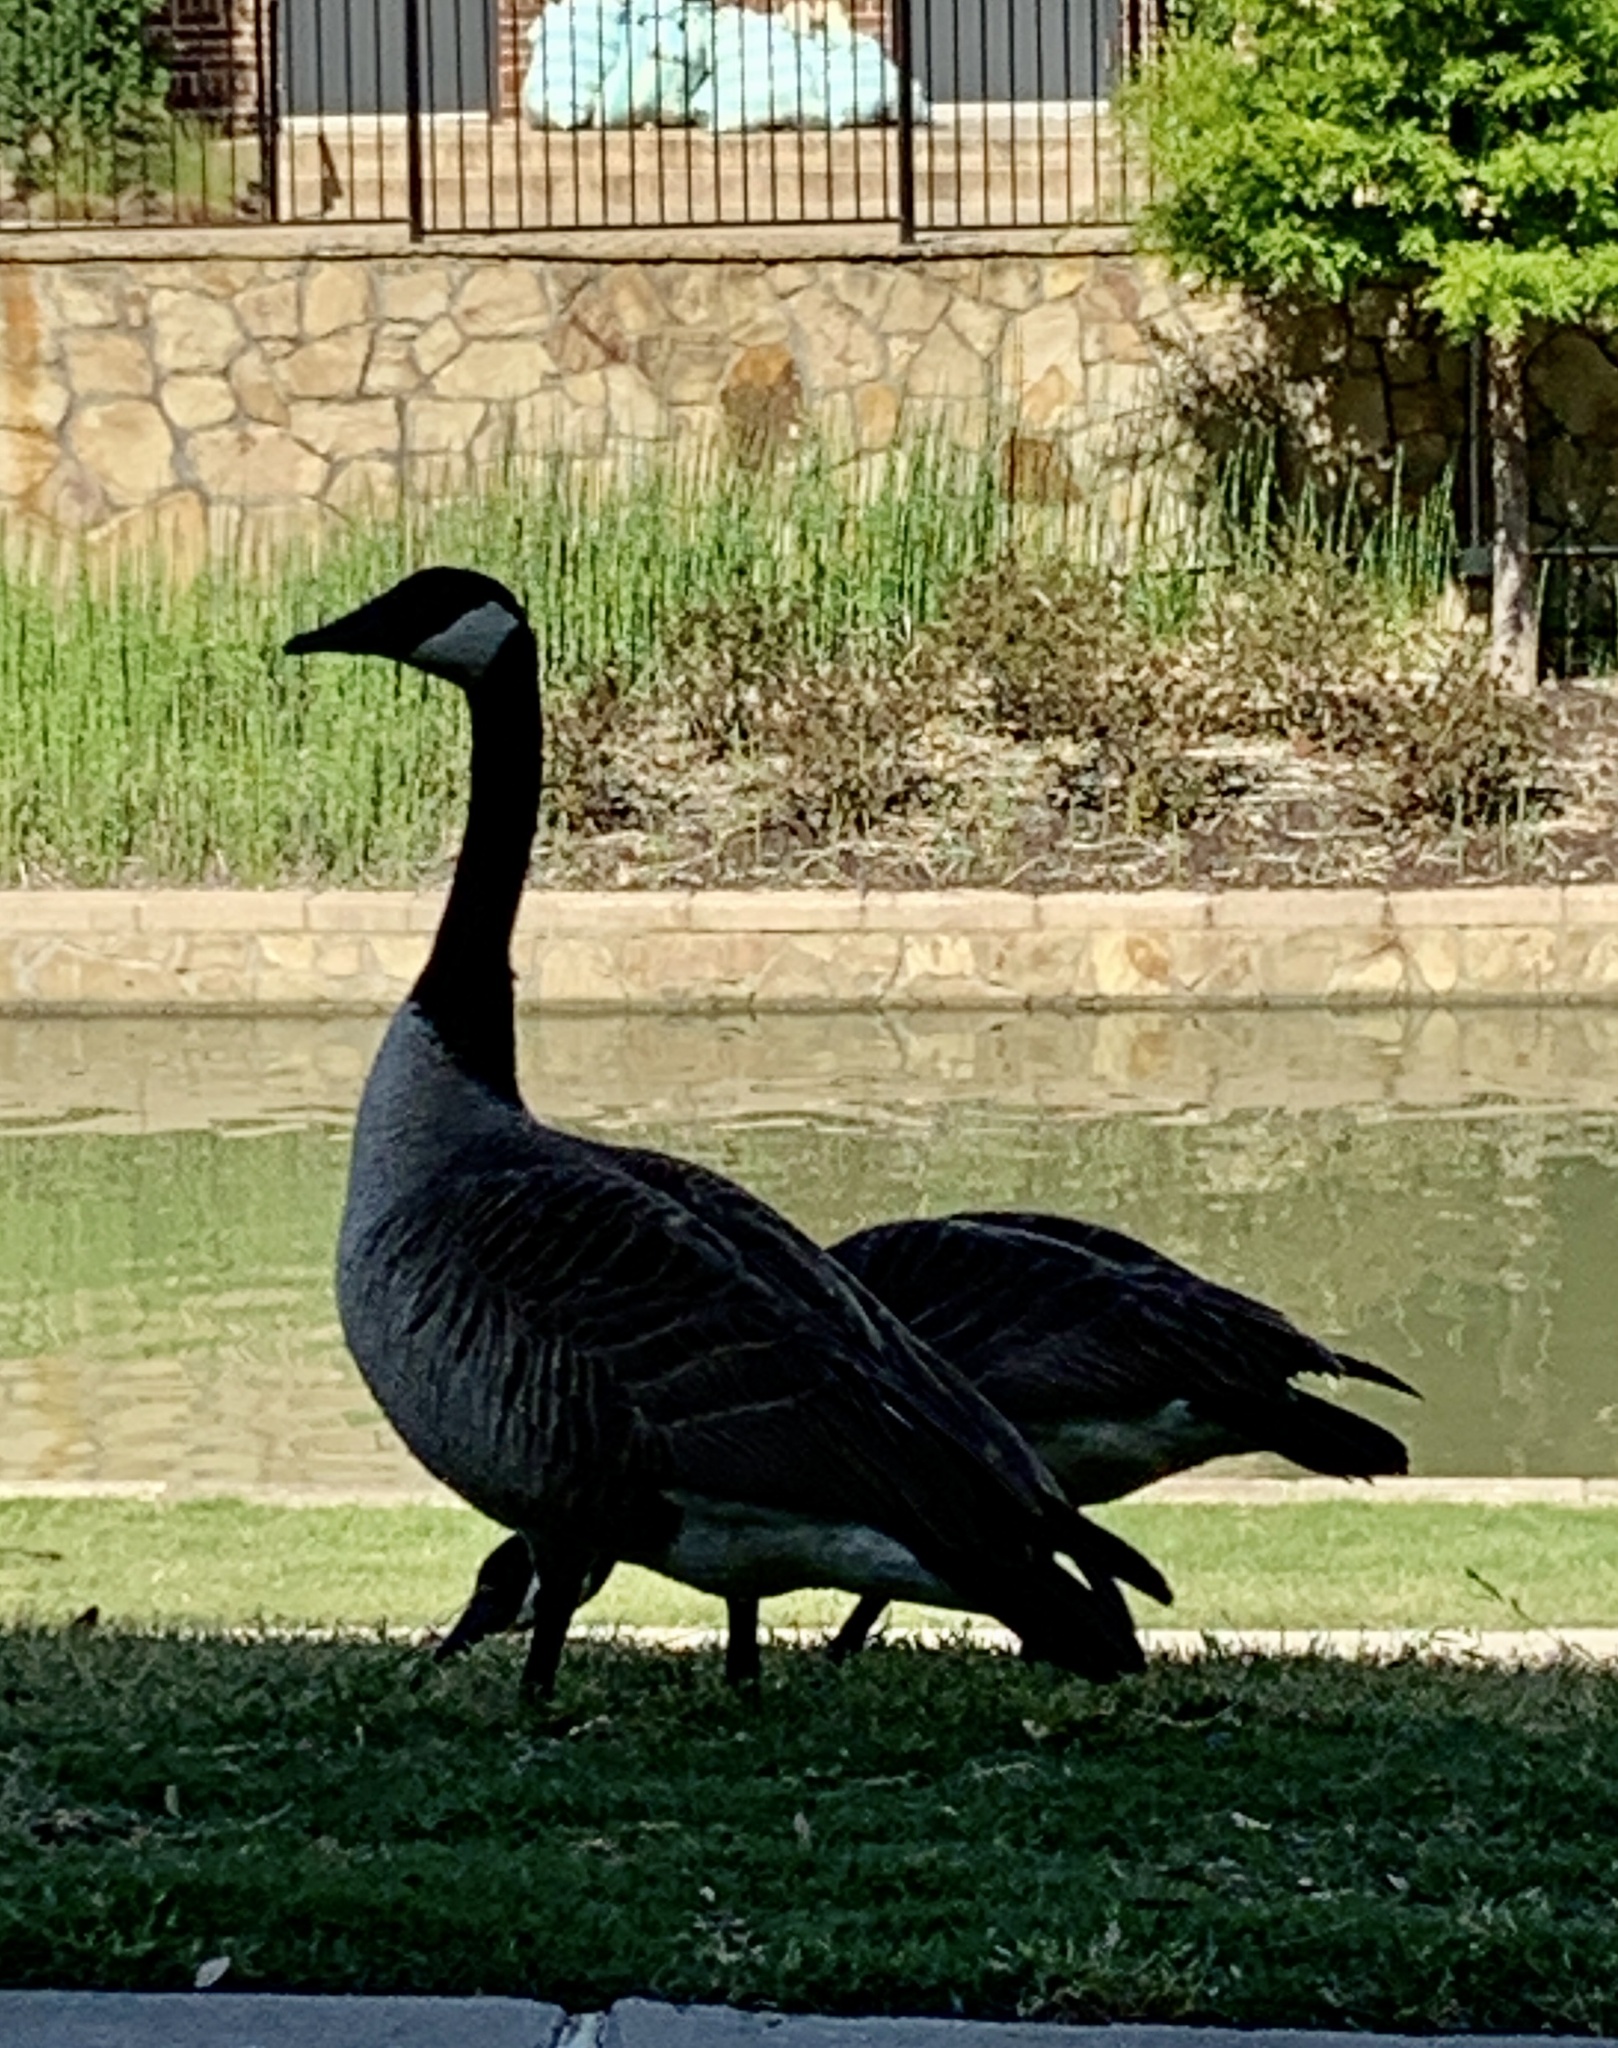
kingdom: Animalia
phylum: Chordata
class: Aves
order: Anseriformes
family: Anatidae
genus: Branta
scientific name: Branta canadensis
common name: Canada goose
